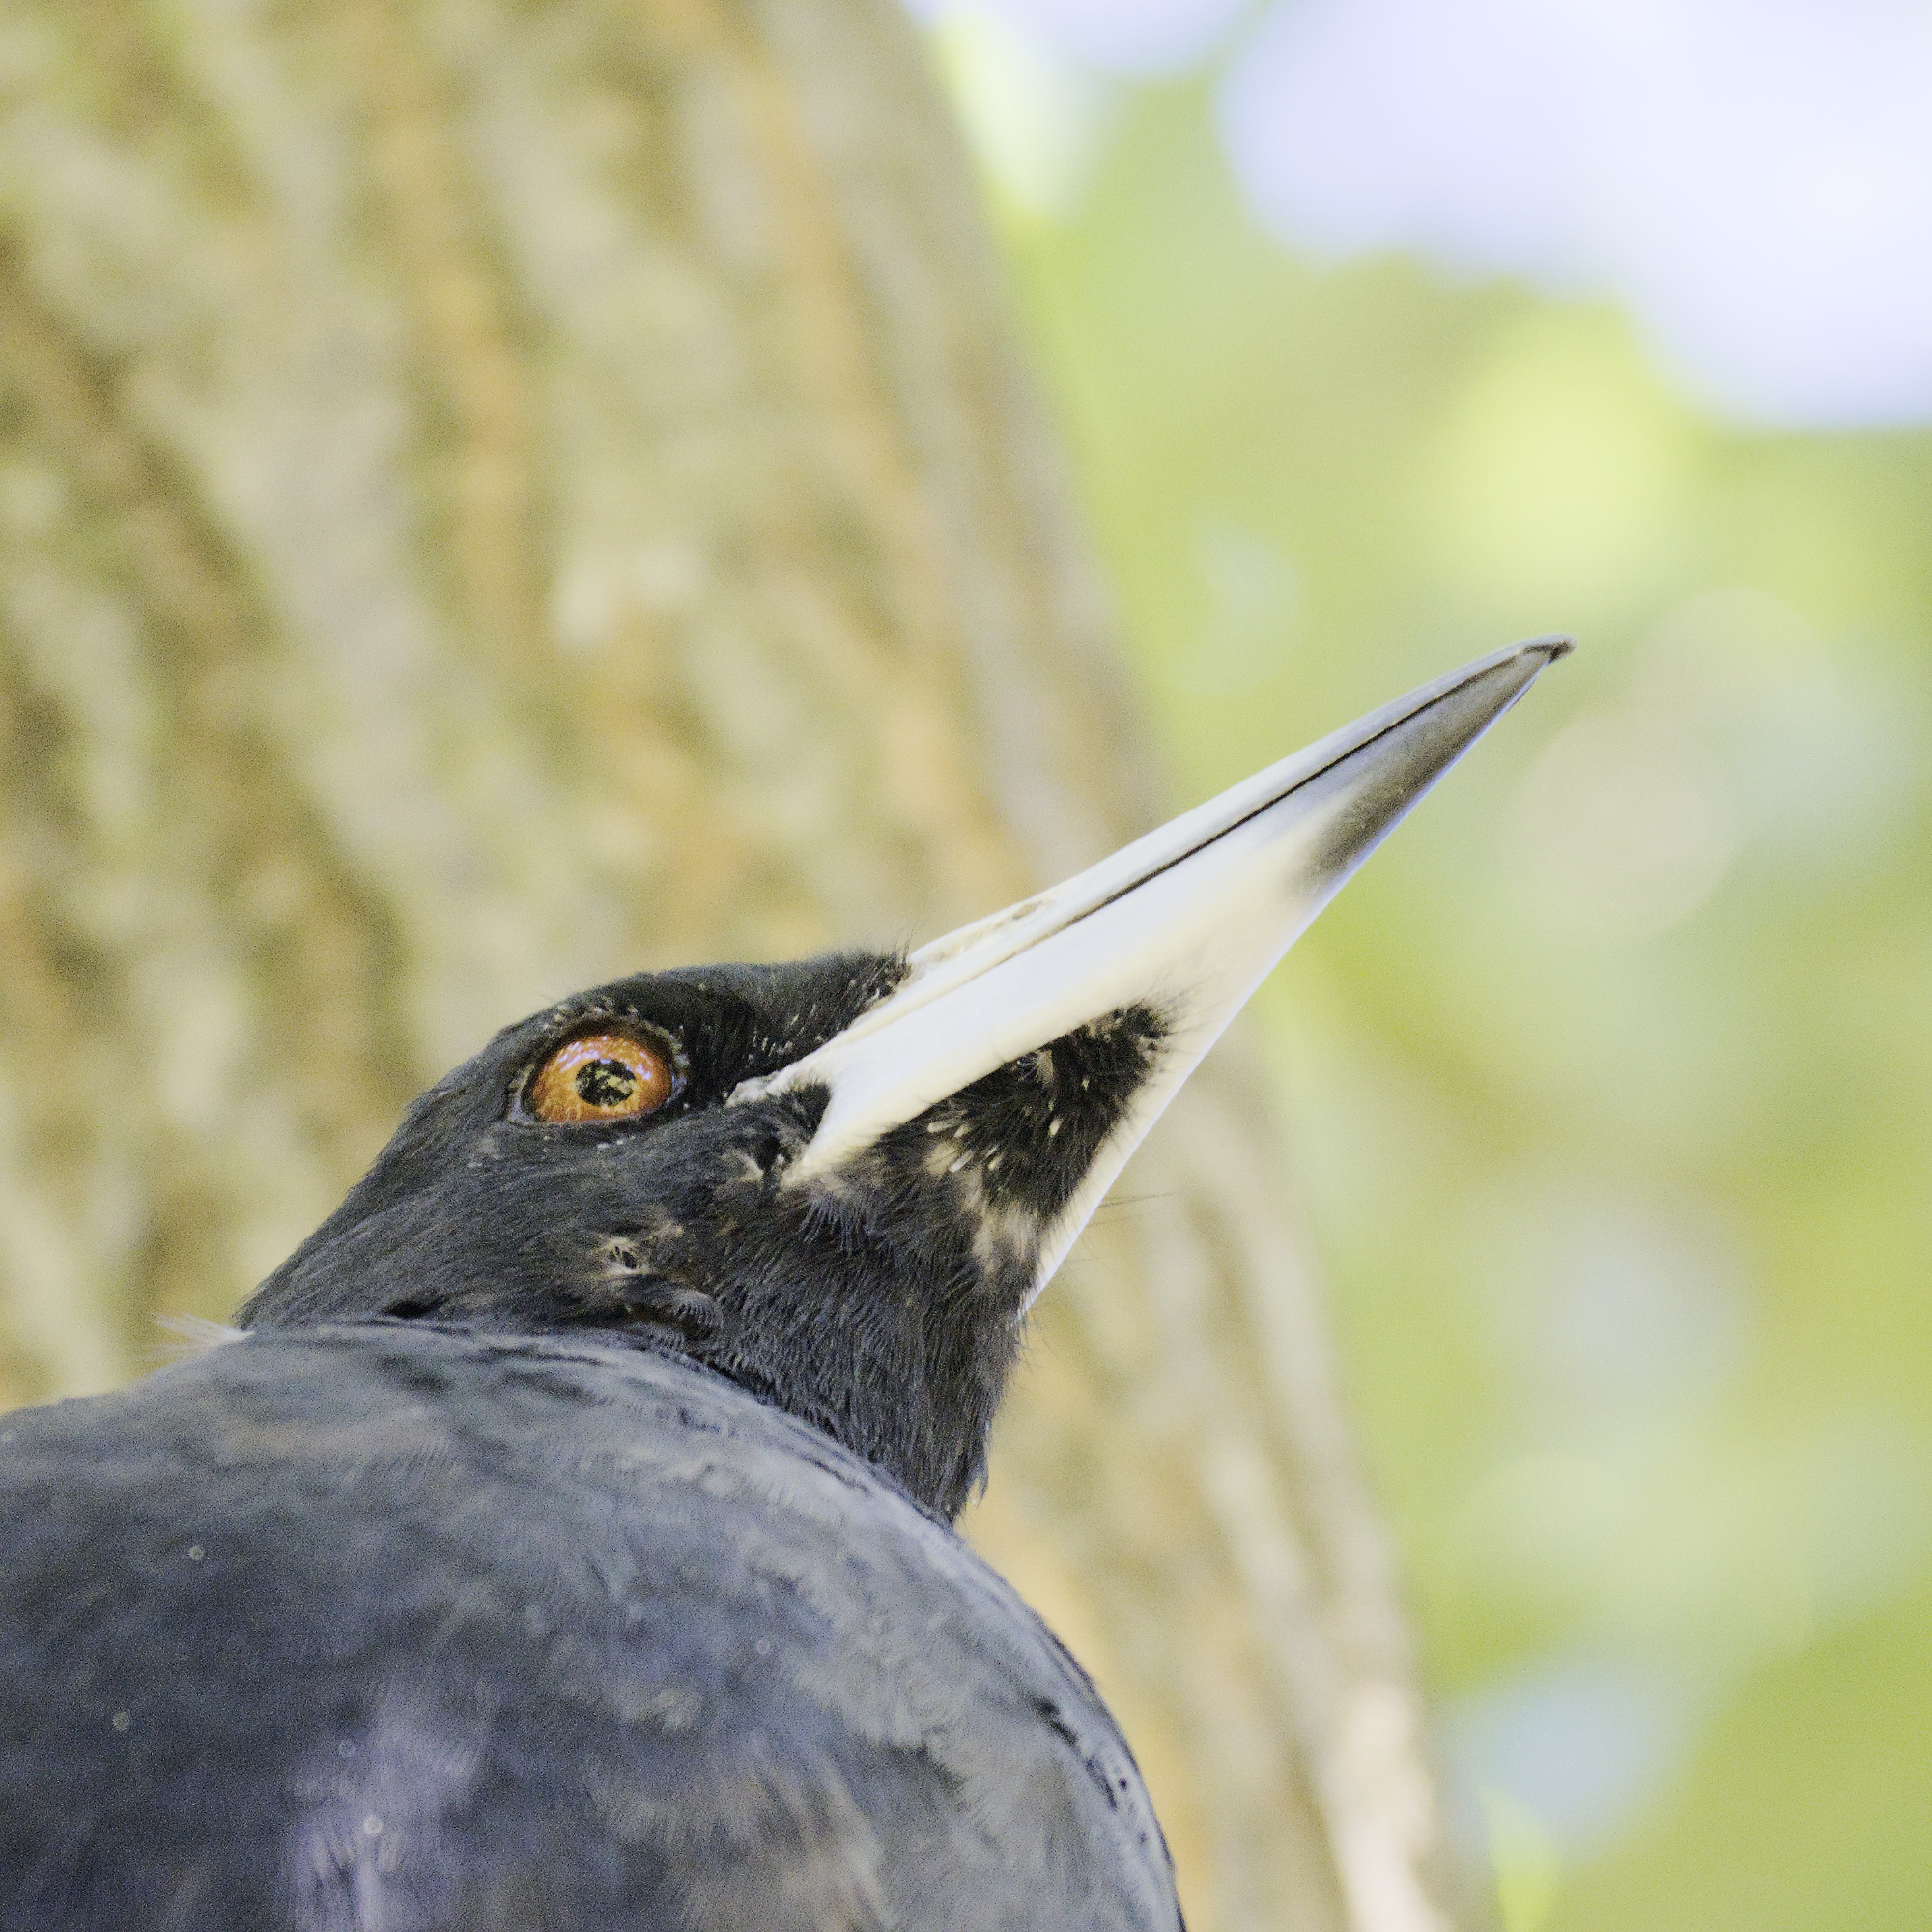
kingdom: Animalia
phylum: Chordata
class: Aves
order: Passeriformes
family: Cracticidae
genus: Gymnorhina
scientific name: Gymnorhina tibicen
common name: Australian magpie
